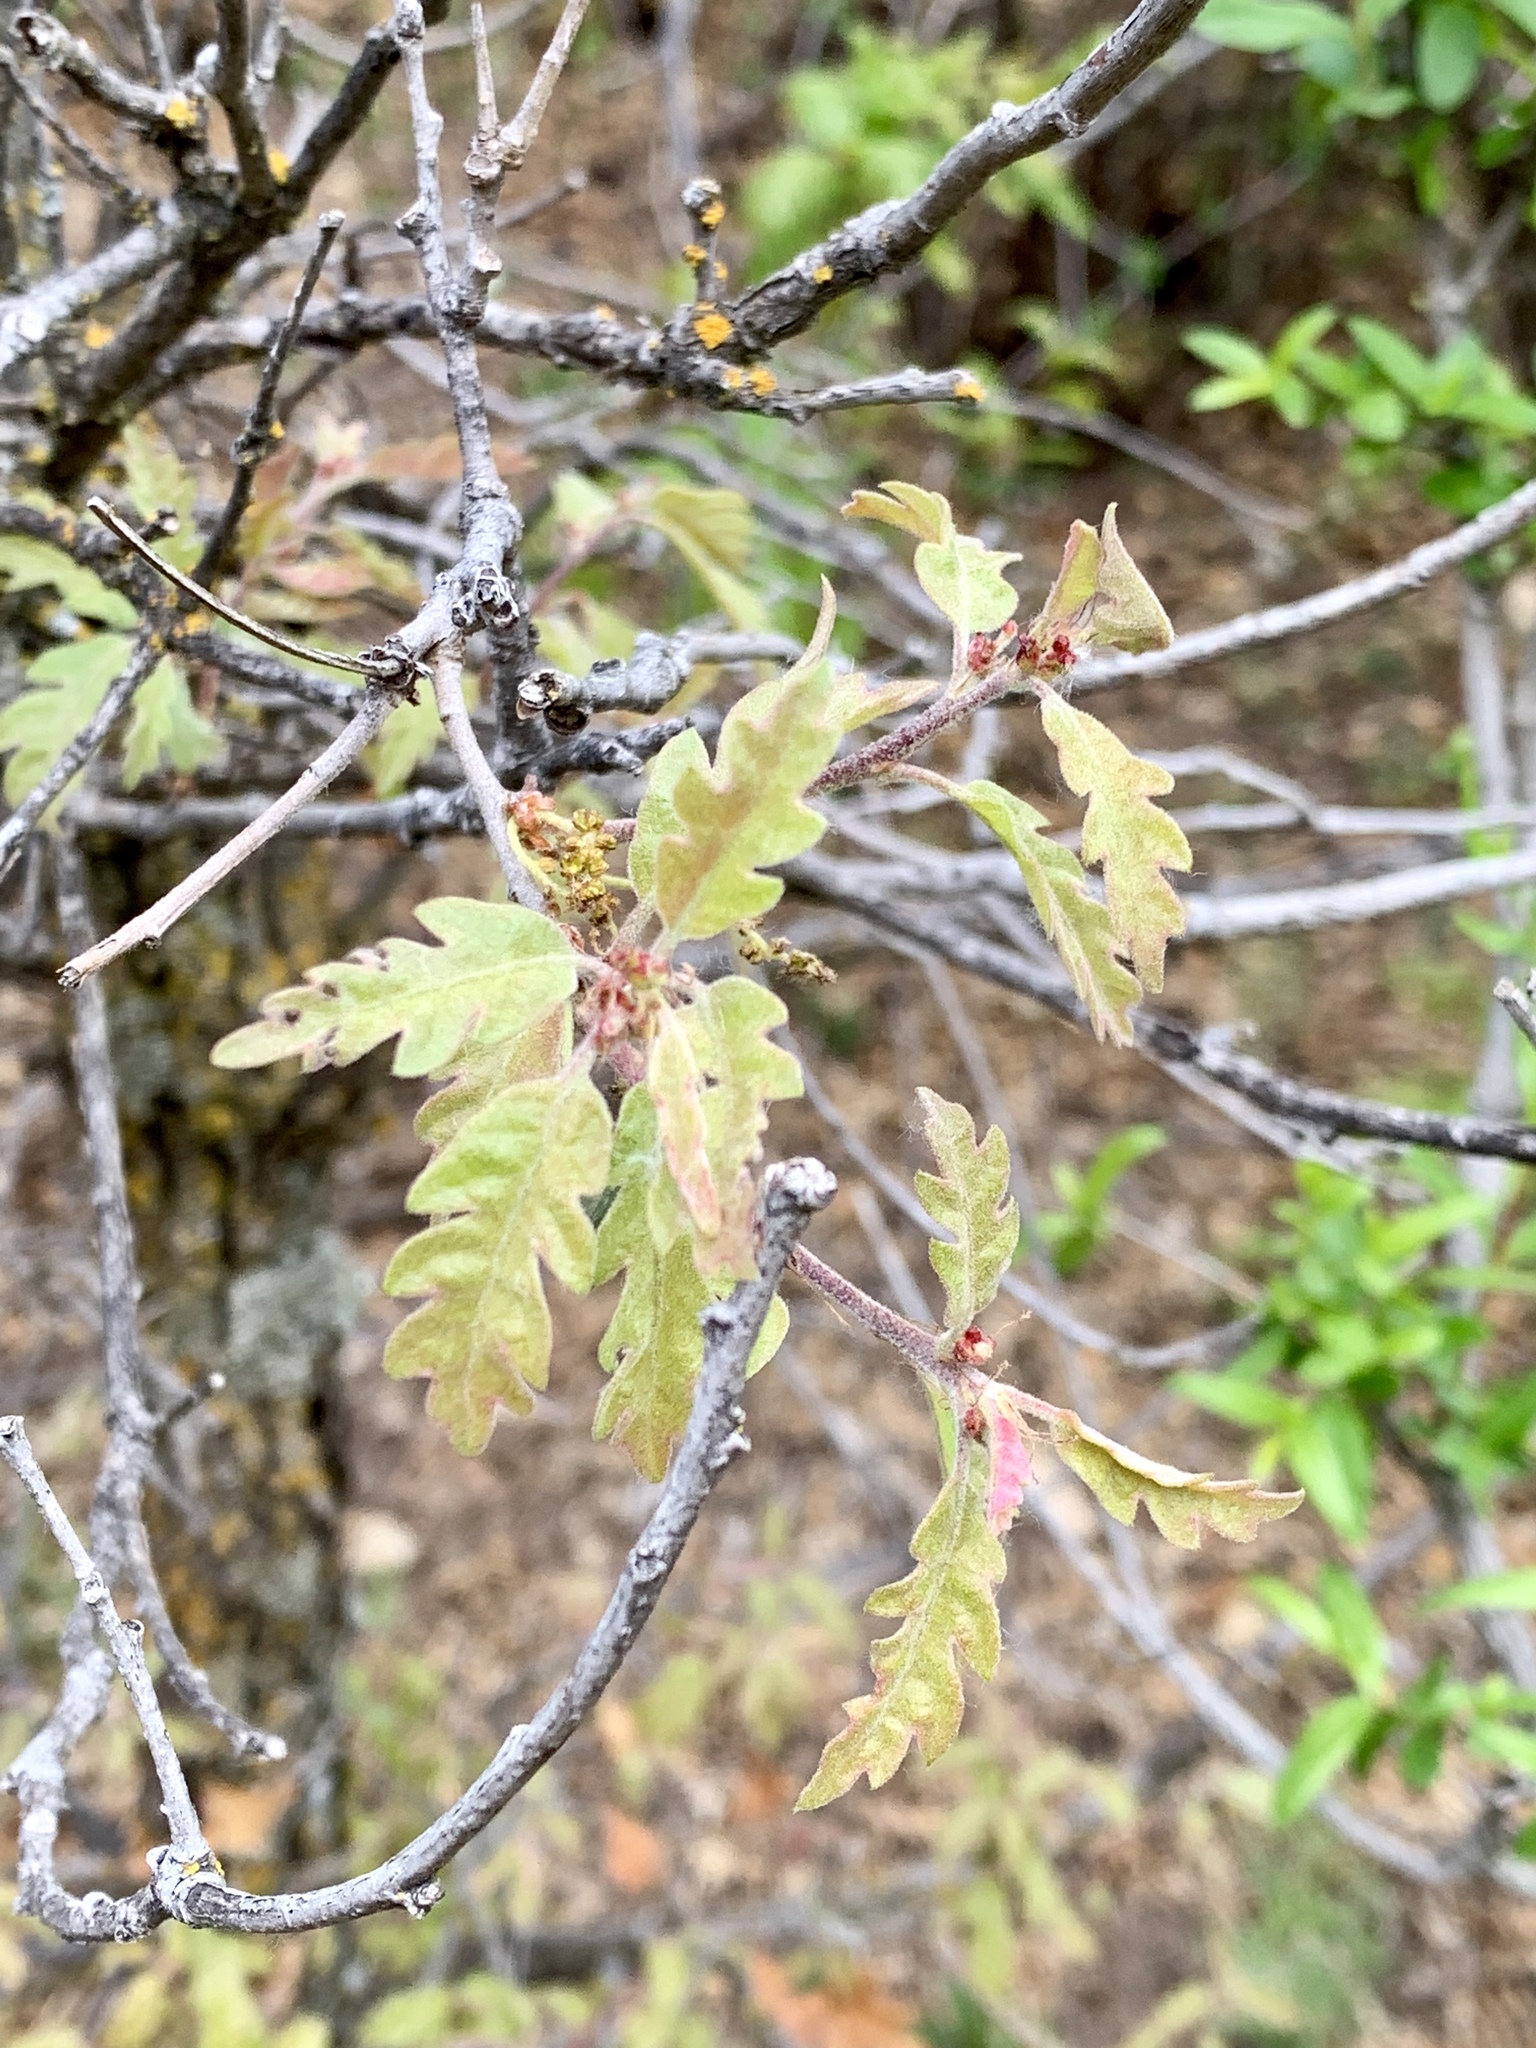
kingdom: Plantae
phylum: Tracheophyta
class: Magnoliopsida
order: Fagales
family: Fagaceae
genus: Quercus
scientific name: Quercus undulata
